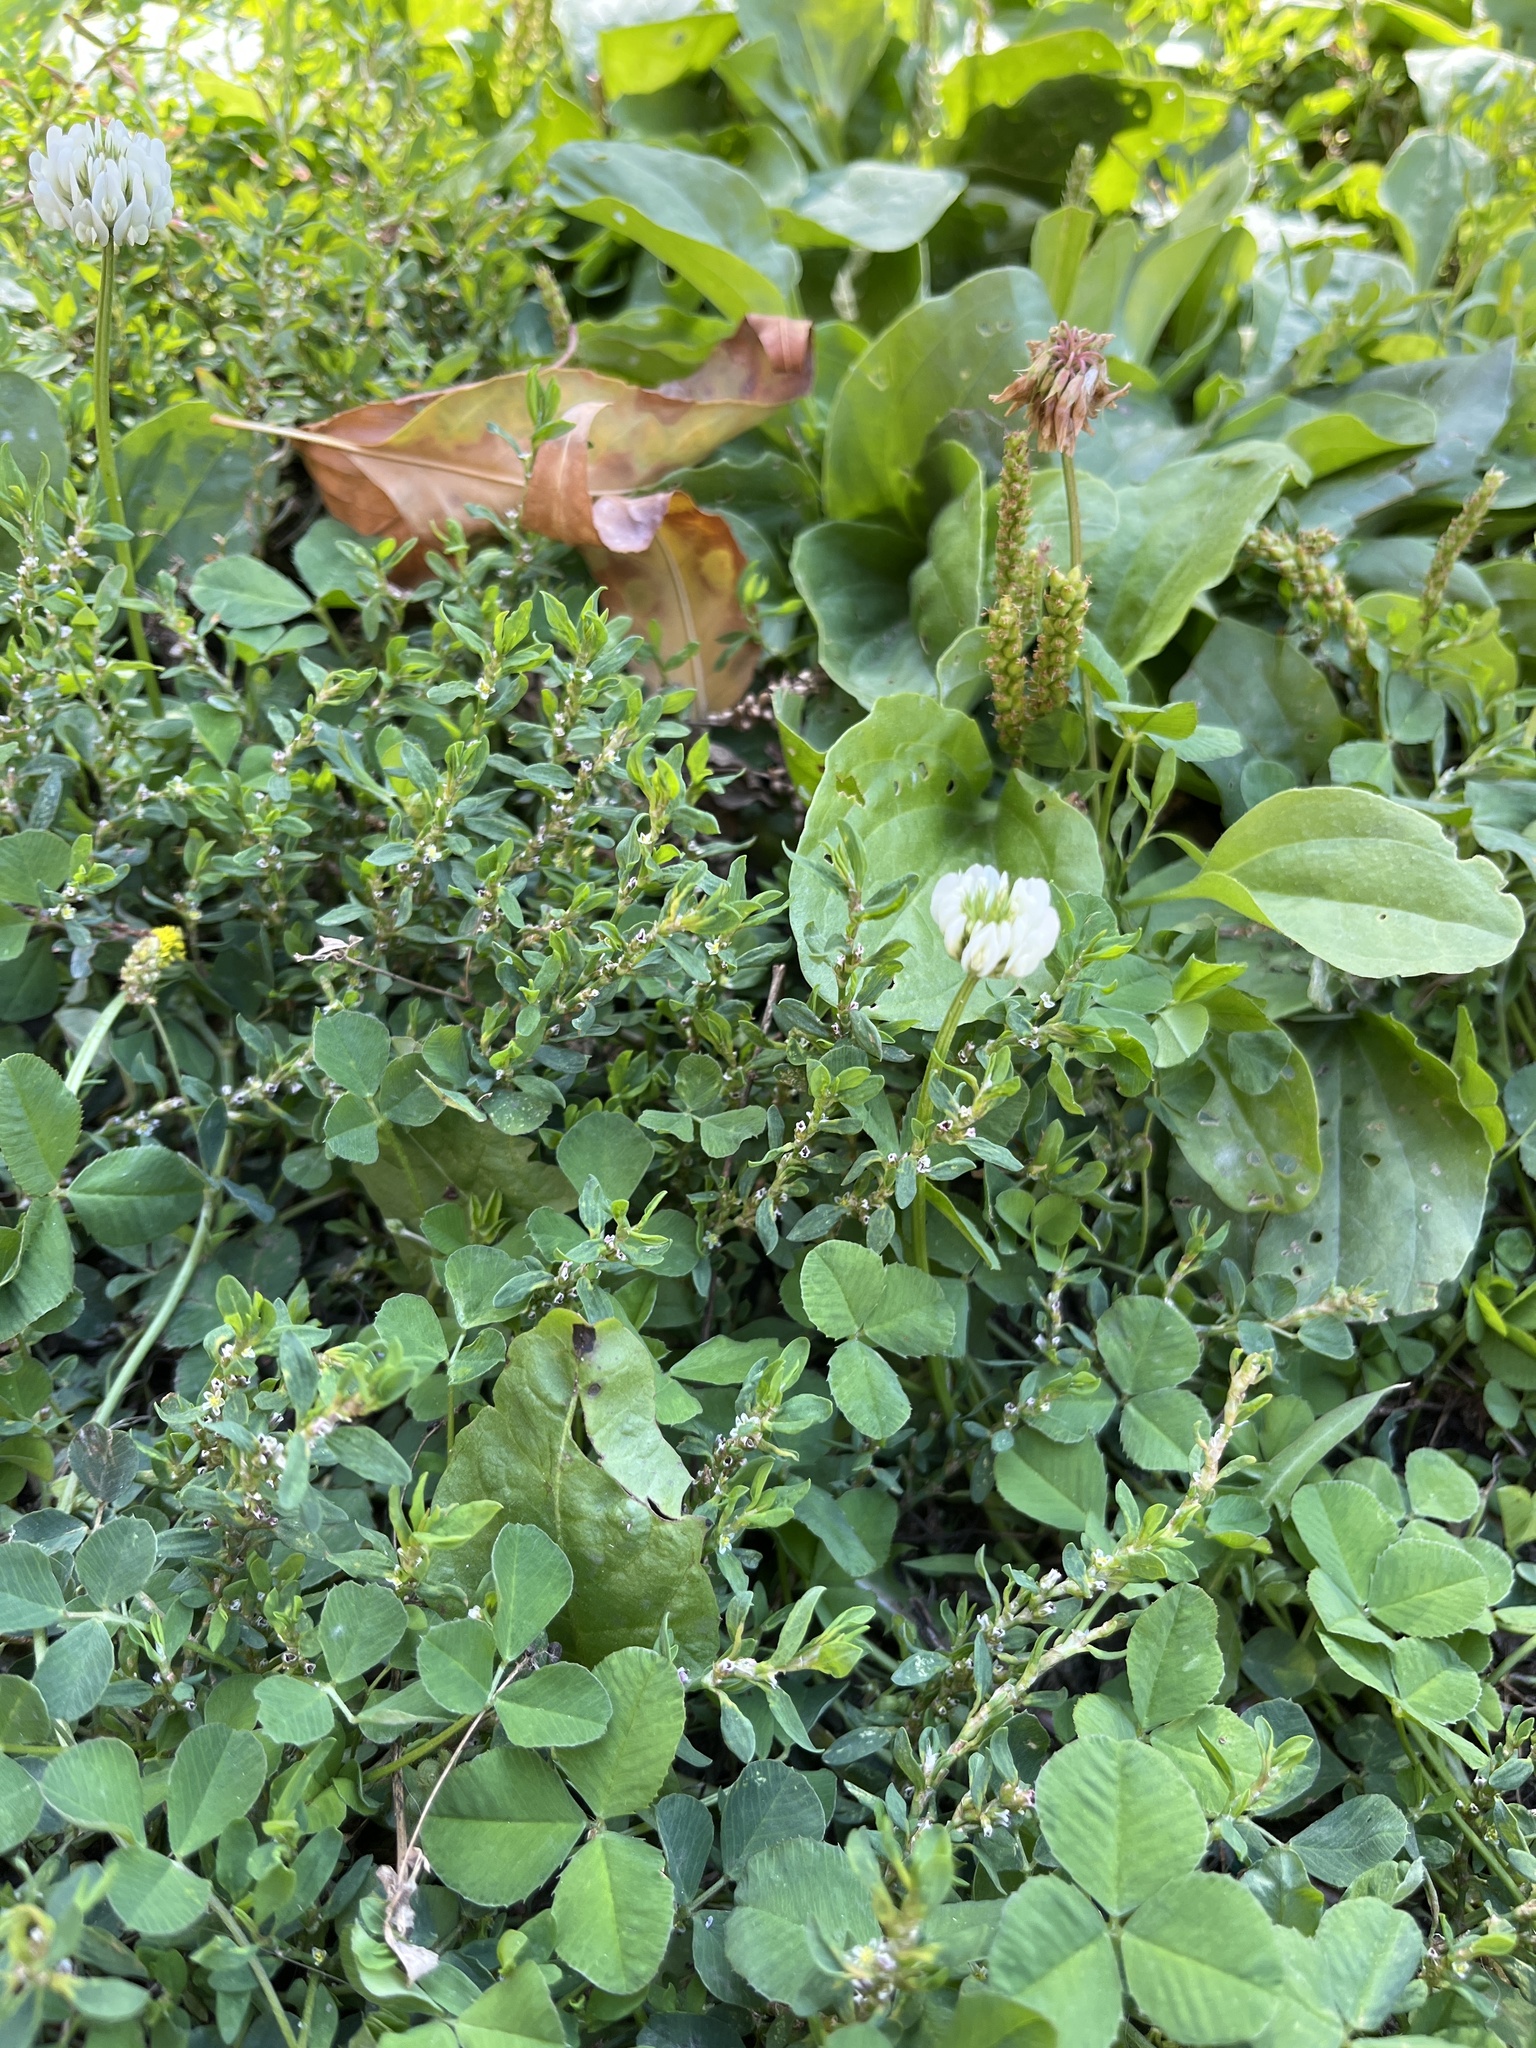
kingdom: Plantae
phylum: Tracheophyta
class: Magnoliopsida
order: Fabales
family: Fabaceae
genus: Trifolium
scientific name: Trifolium repens
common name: White clover
